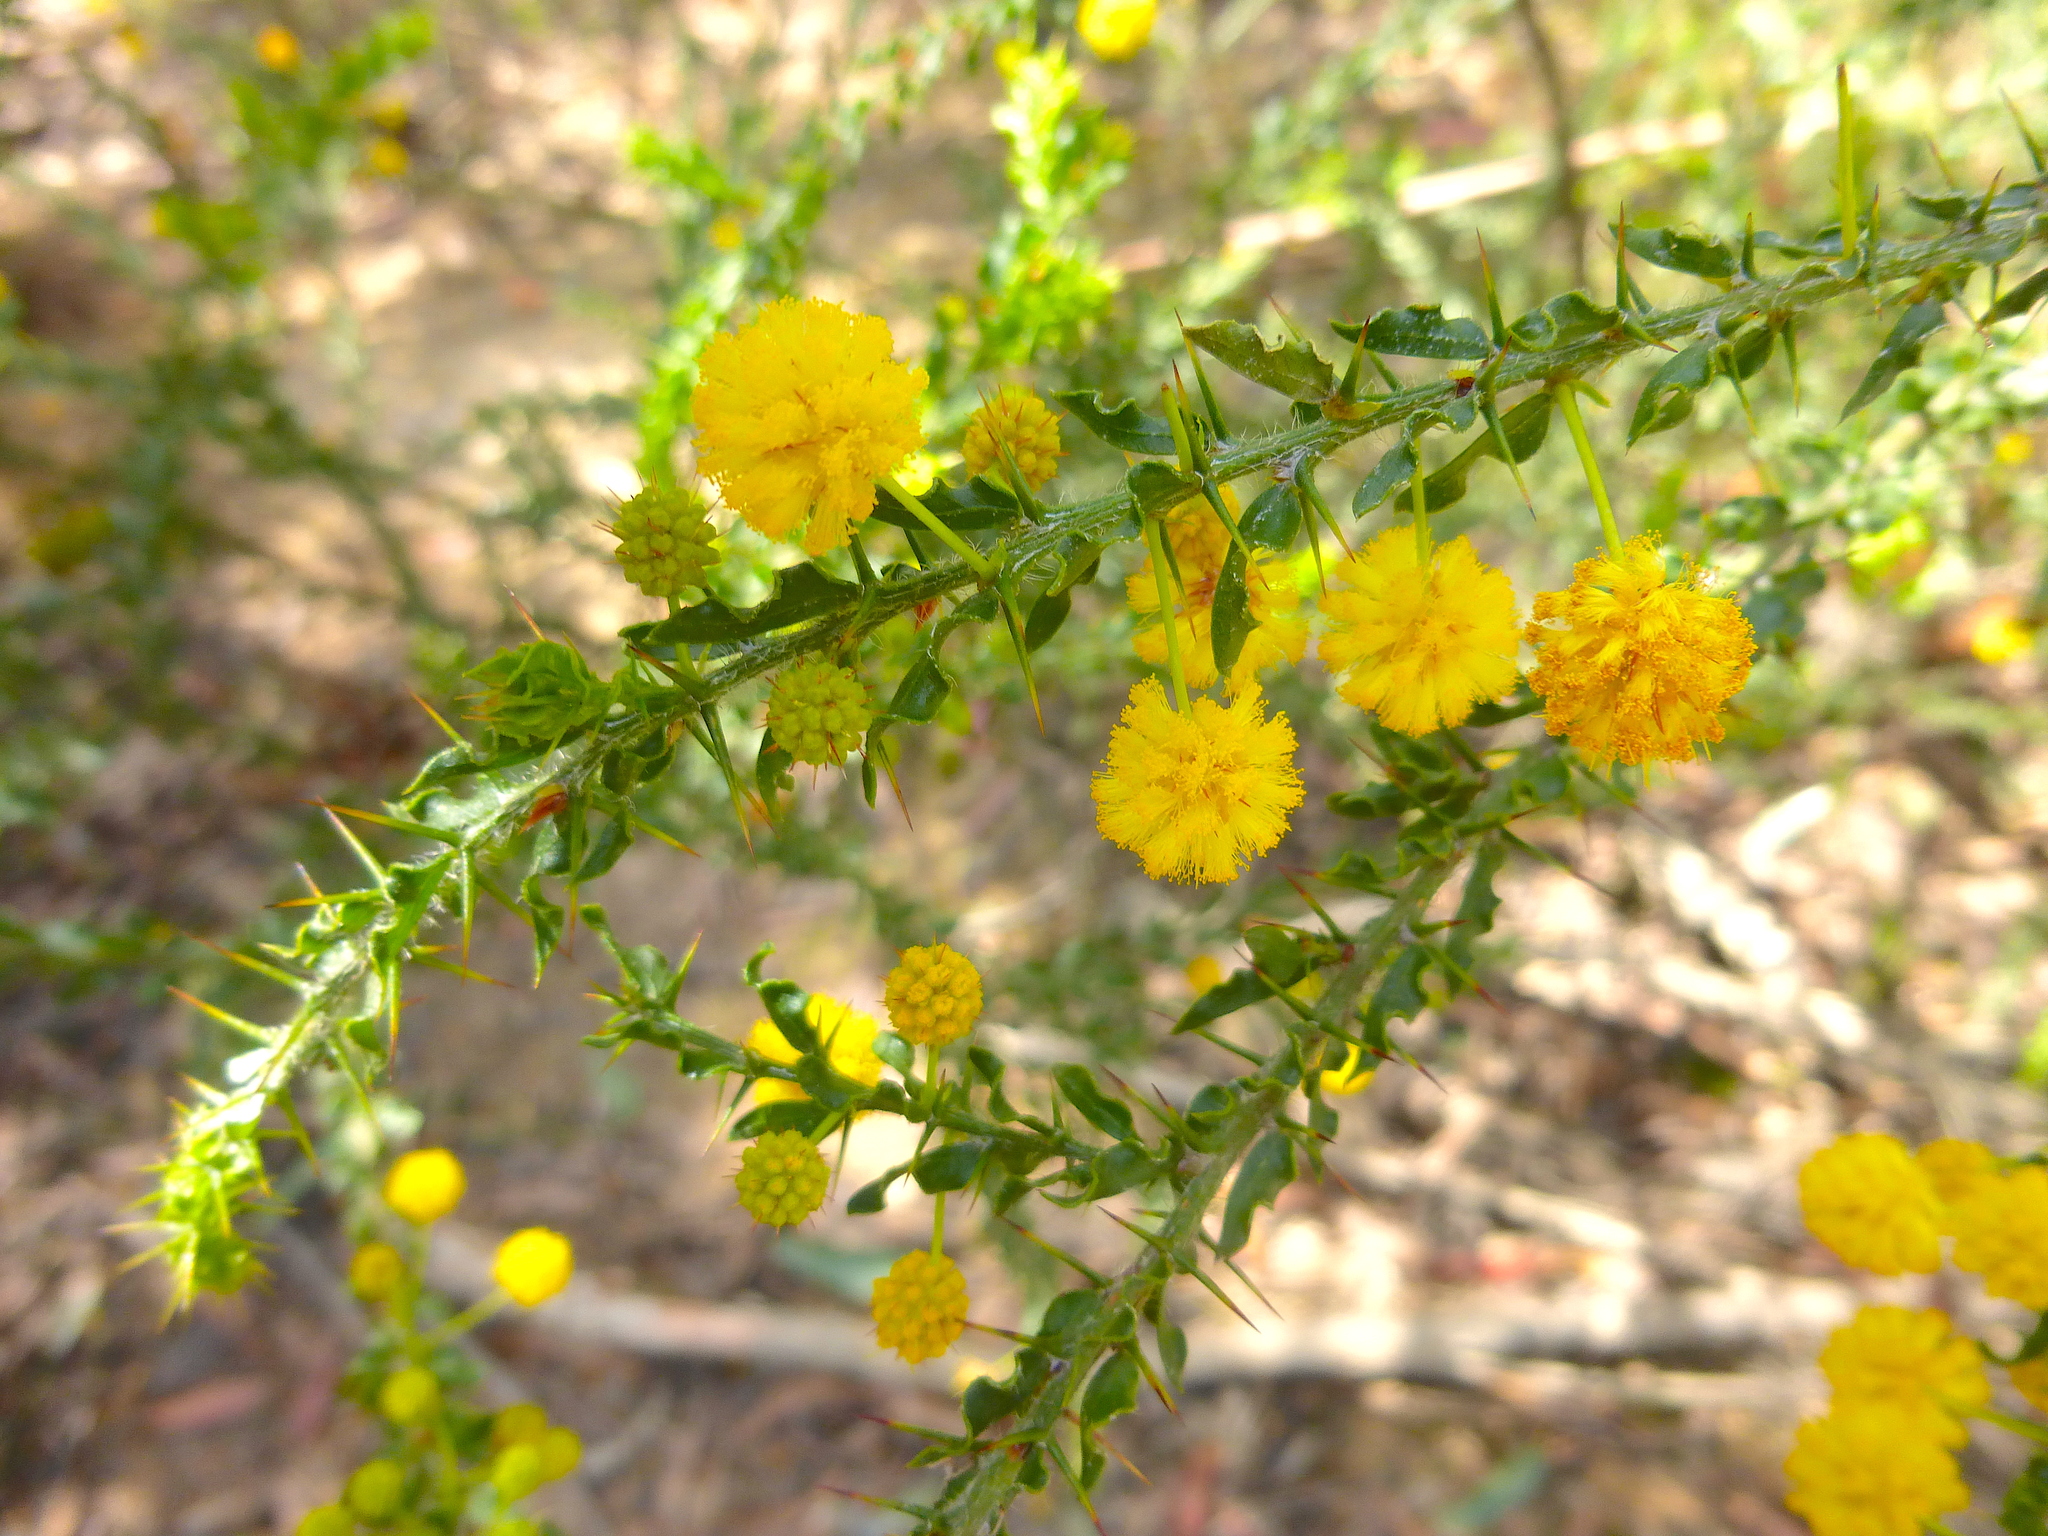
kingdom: Plantae
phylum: Tracheophyta
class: Magnoliopsida
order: Fabales
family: Fabaceae
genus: Acacia
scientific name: Acacia paradoxa
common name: Paradox acacia
